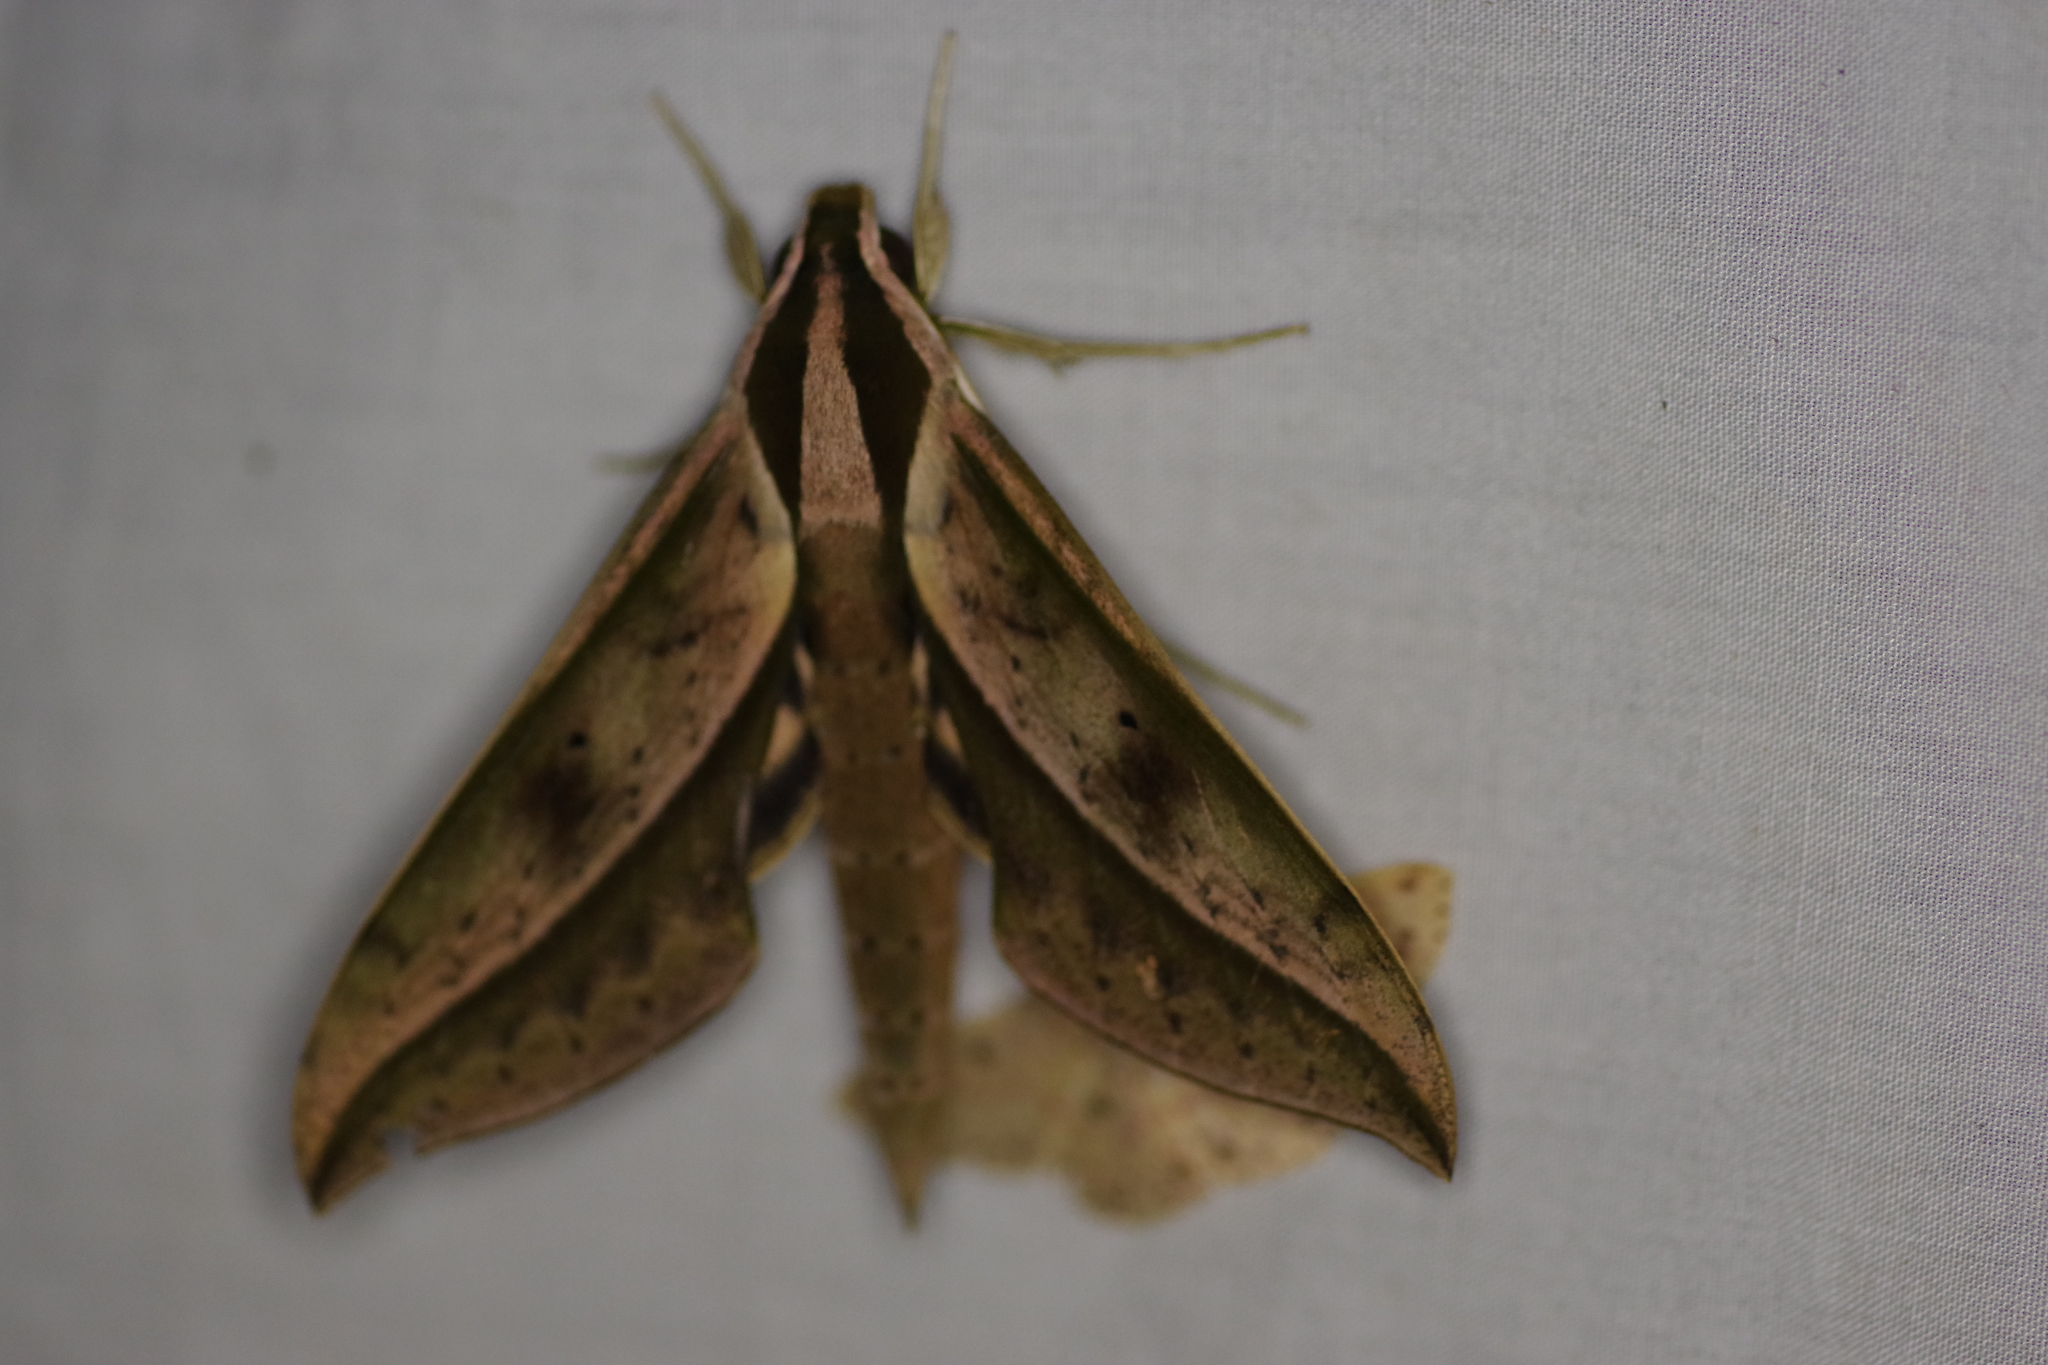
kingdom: Animalia
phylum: Arthropoda
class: Insecta
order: Lepidoptera
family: Sphingidae
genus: Xylophanes
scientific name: Xylophanes acrus
